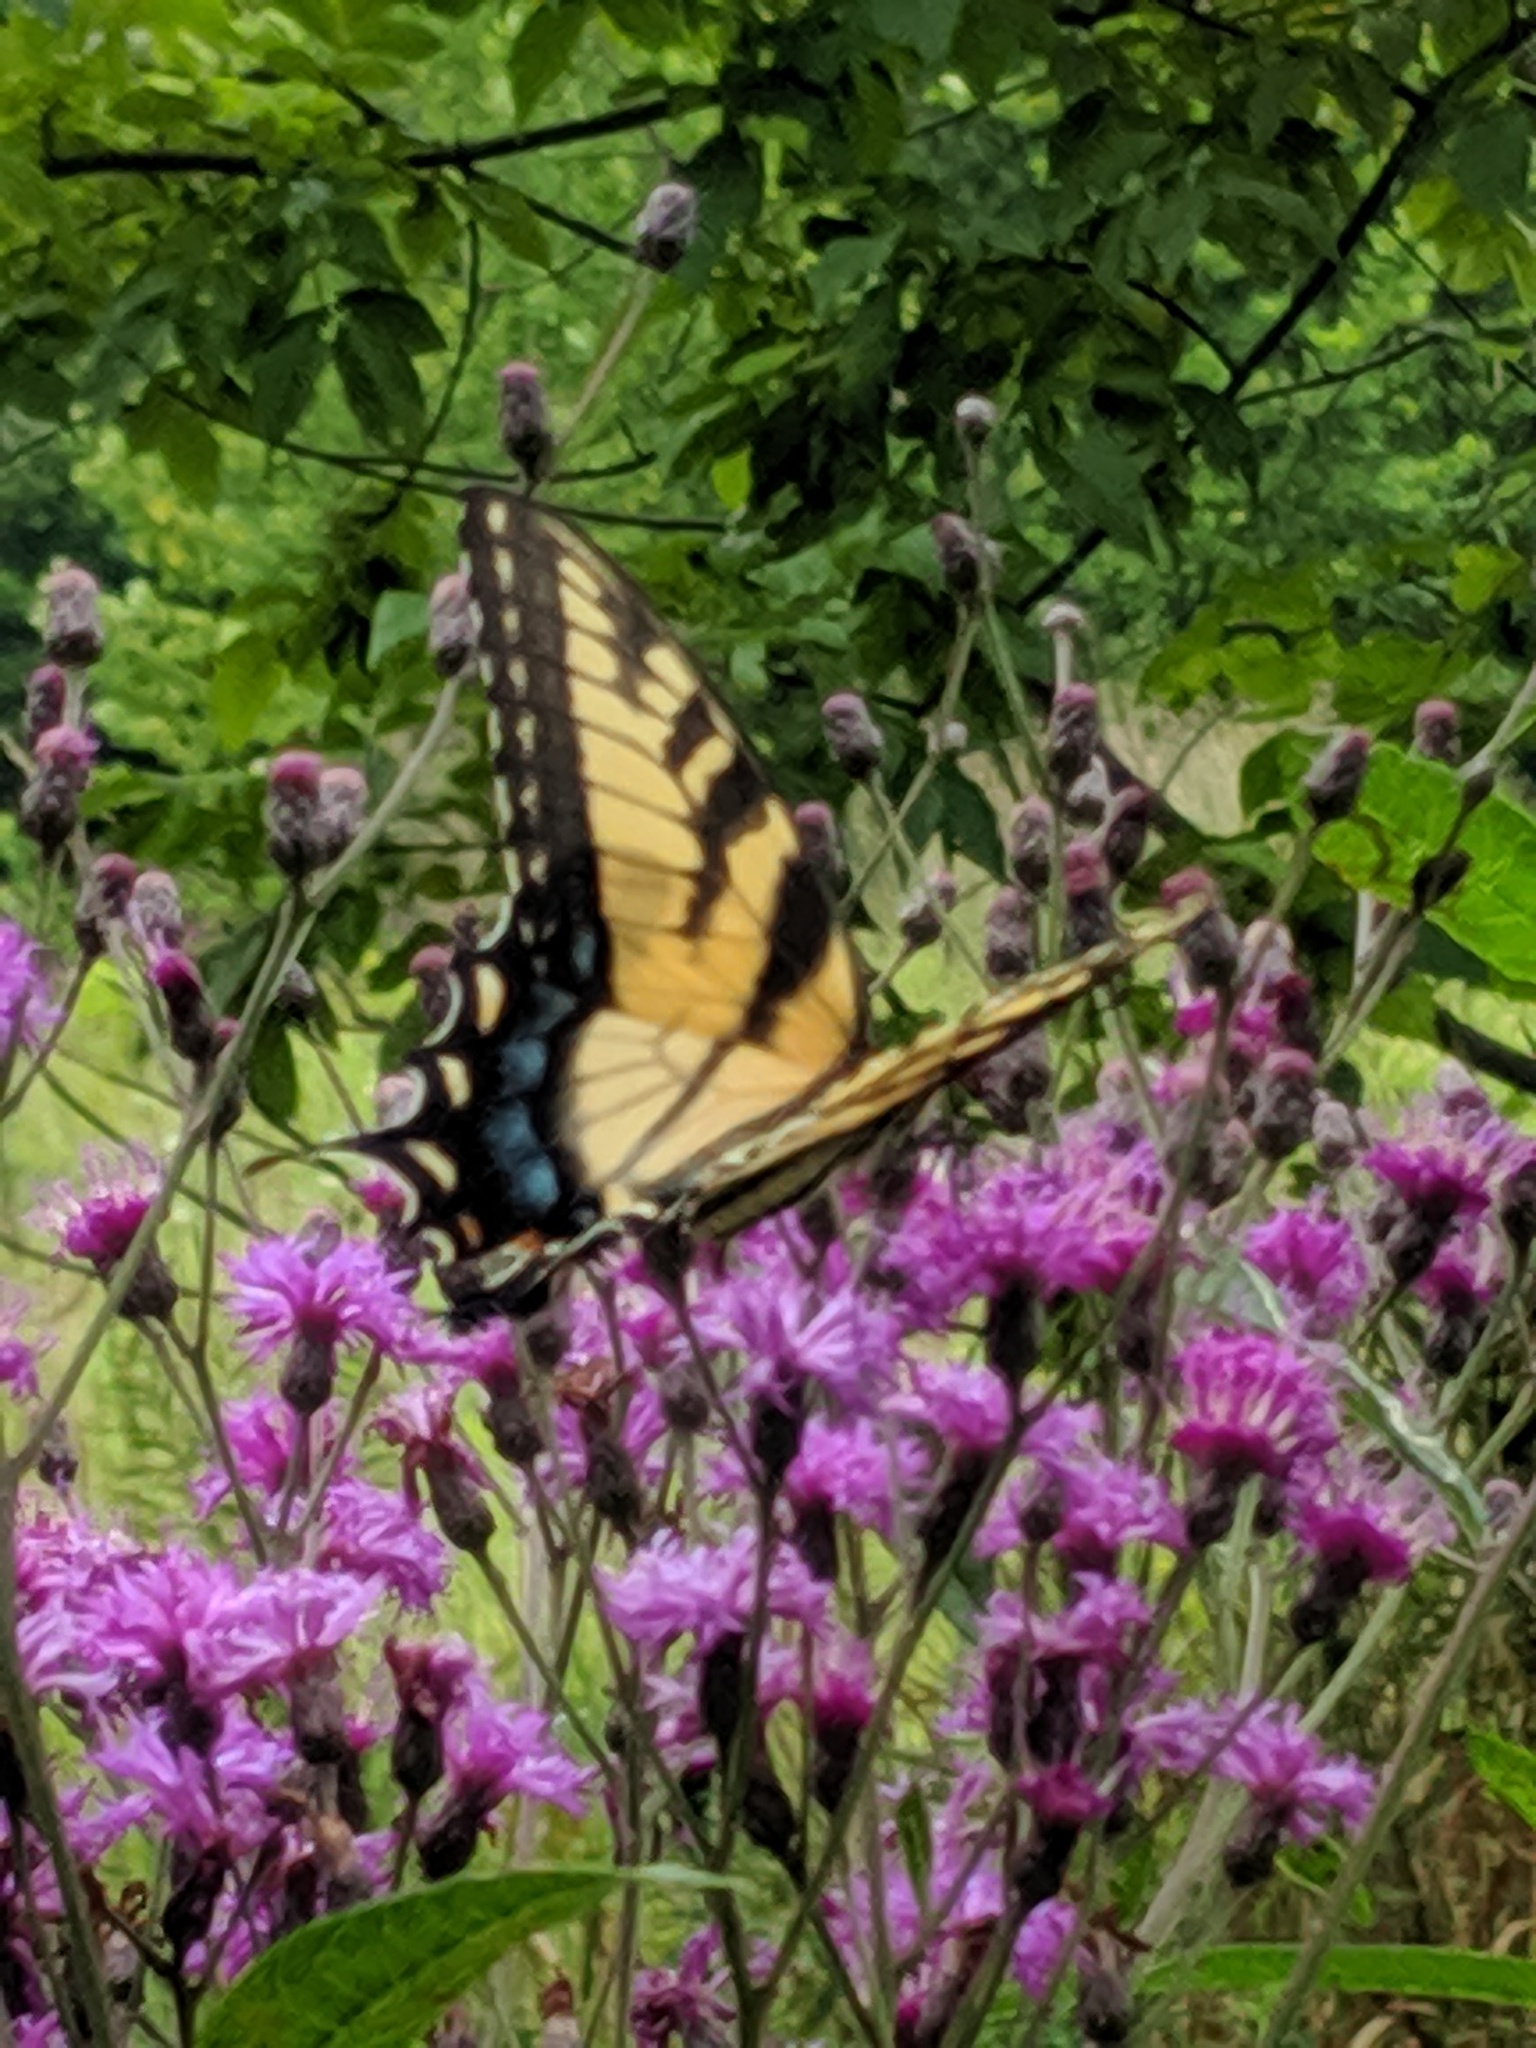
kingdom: Animalia
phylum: Arthropoda
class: Insecta
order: Lepidoptera
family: Papilionidae
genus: Papilio
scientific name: Papilio glaucus
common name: Tiger swallowtail
